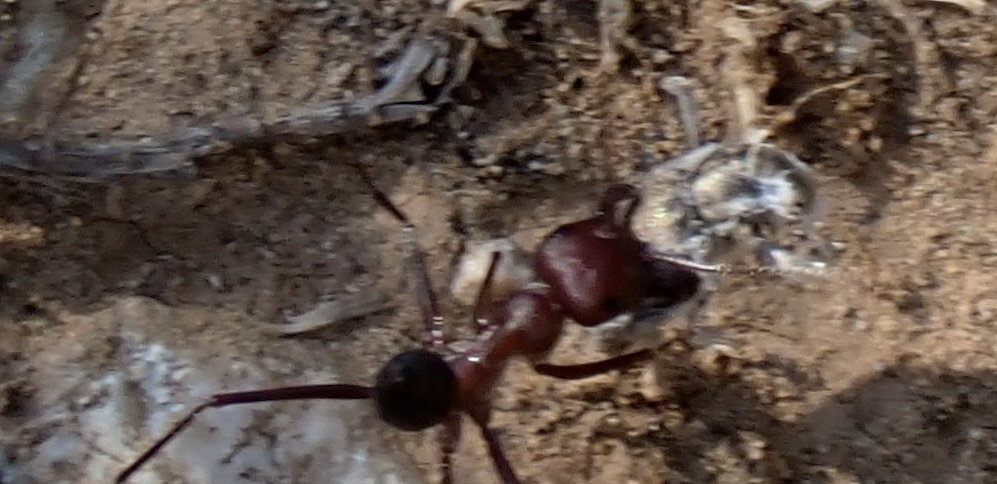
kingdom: Animalia
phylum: Arthropoda
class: Insecta
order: Hymenoptera
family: Formicidae
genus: Cataglyphis
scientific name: Cataglyphis nodus
